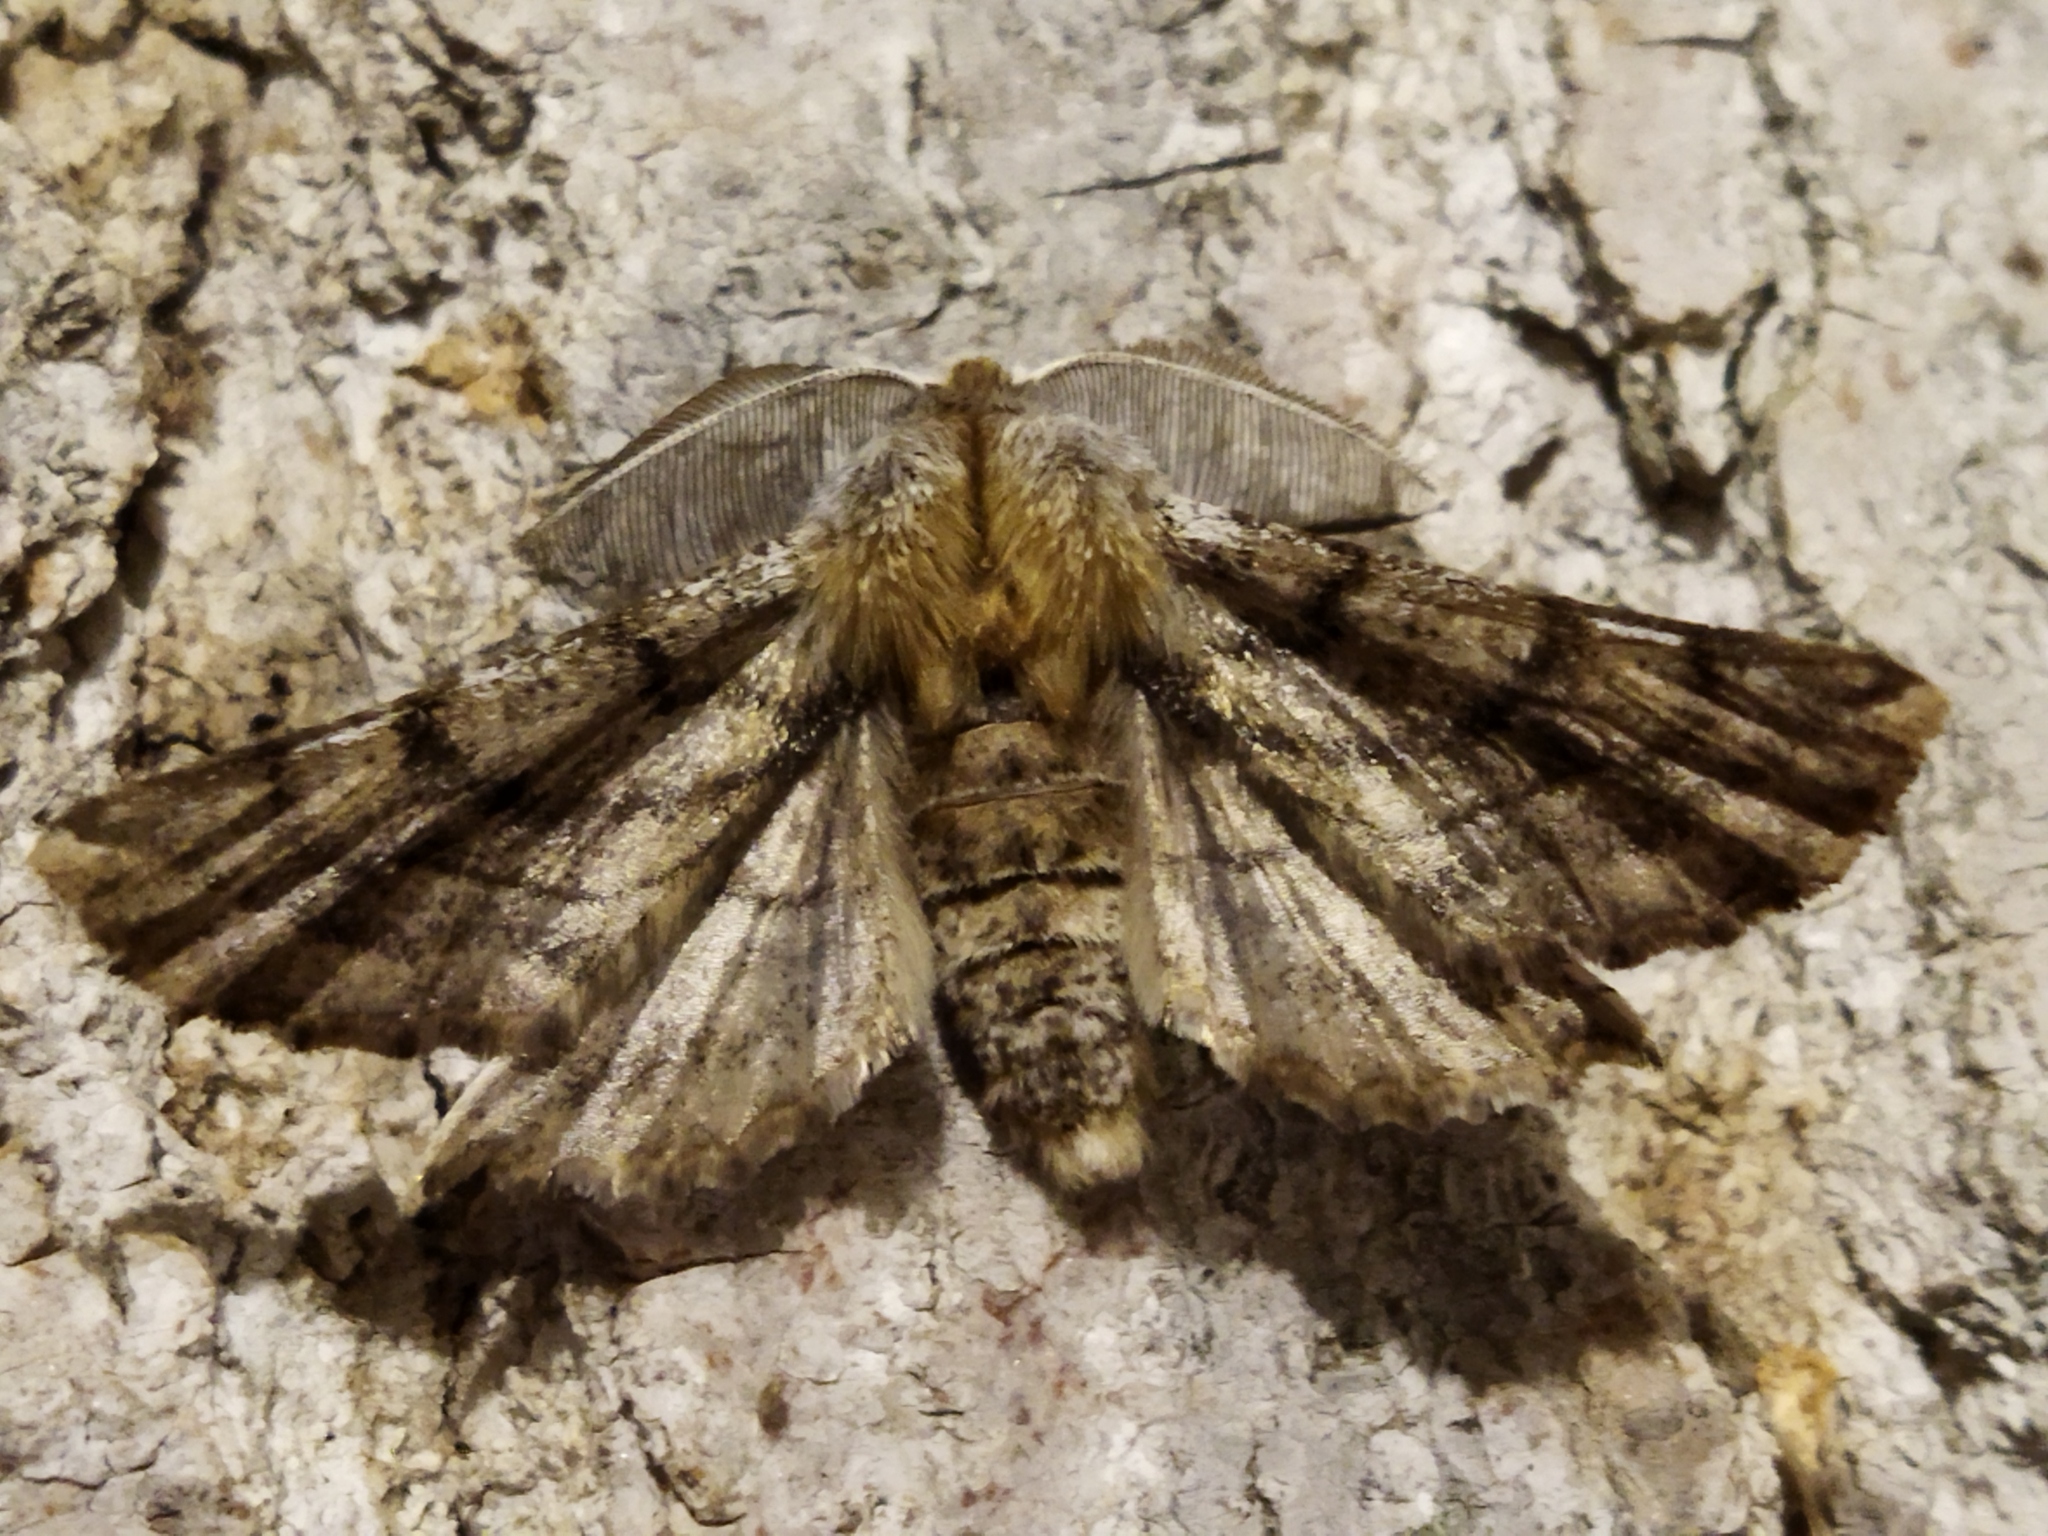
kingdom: Animalia
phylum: Arthropoda
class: Insecta
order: Lepidoptera
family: Geometridae
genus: Apochima
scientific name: Apochima flabellaria
